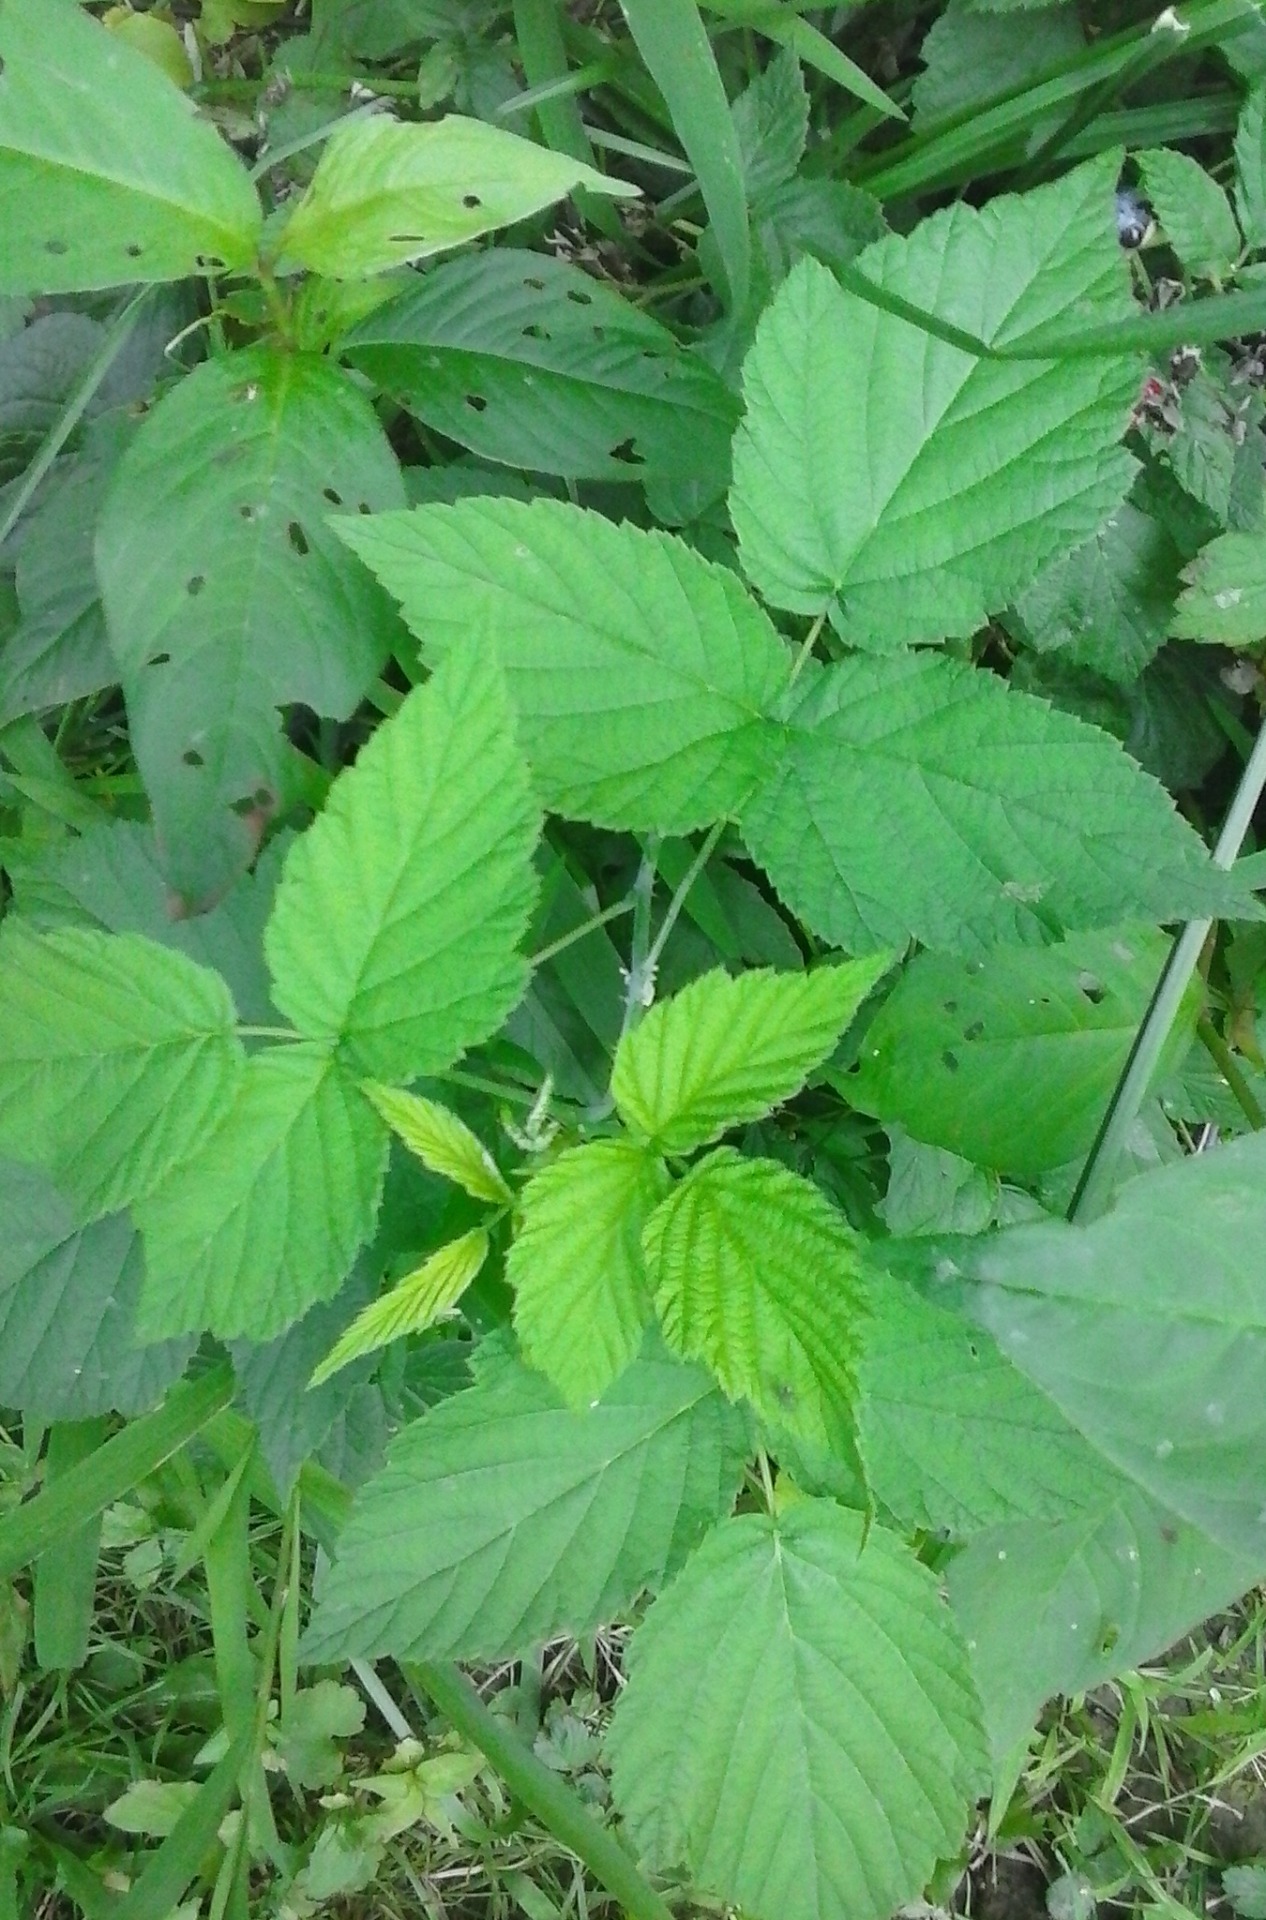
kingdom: Plantae
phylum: Tracheophyta
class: Magnoliopsida
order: Rosales
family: Rosaceae
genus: Rubus
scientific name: Rubus occidentalis
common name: Black raspberry
